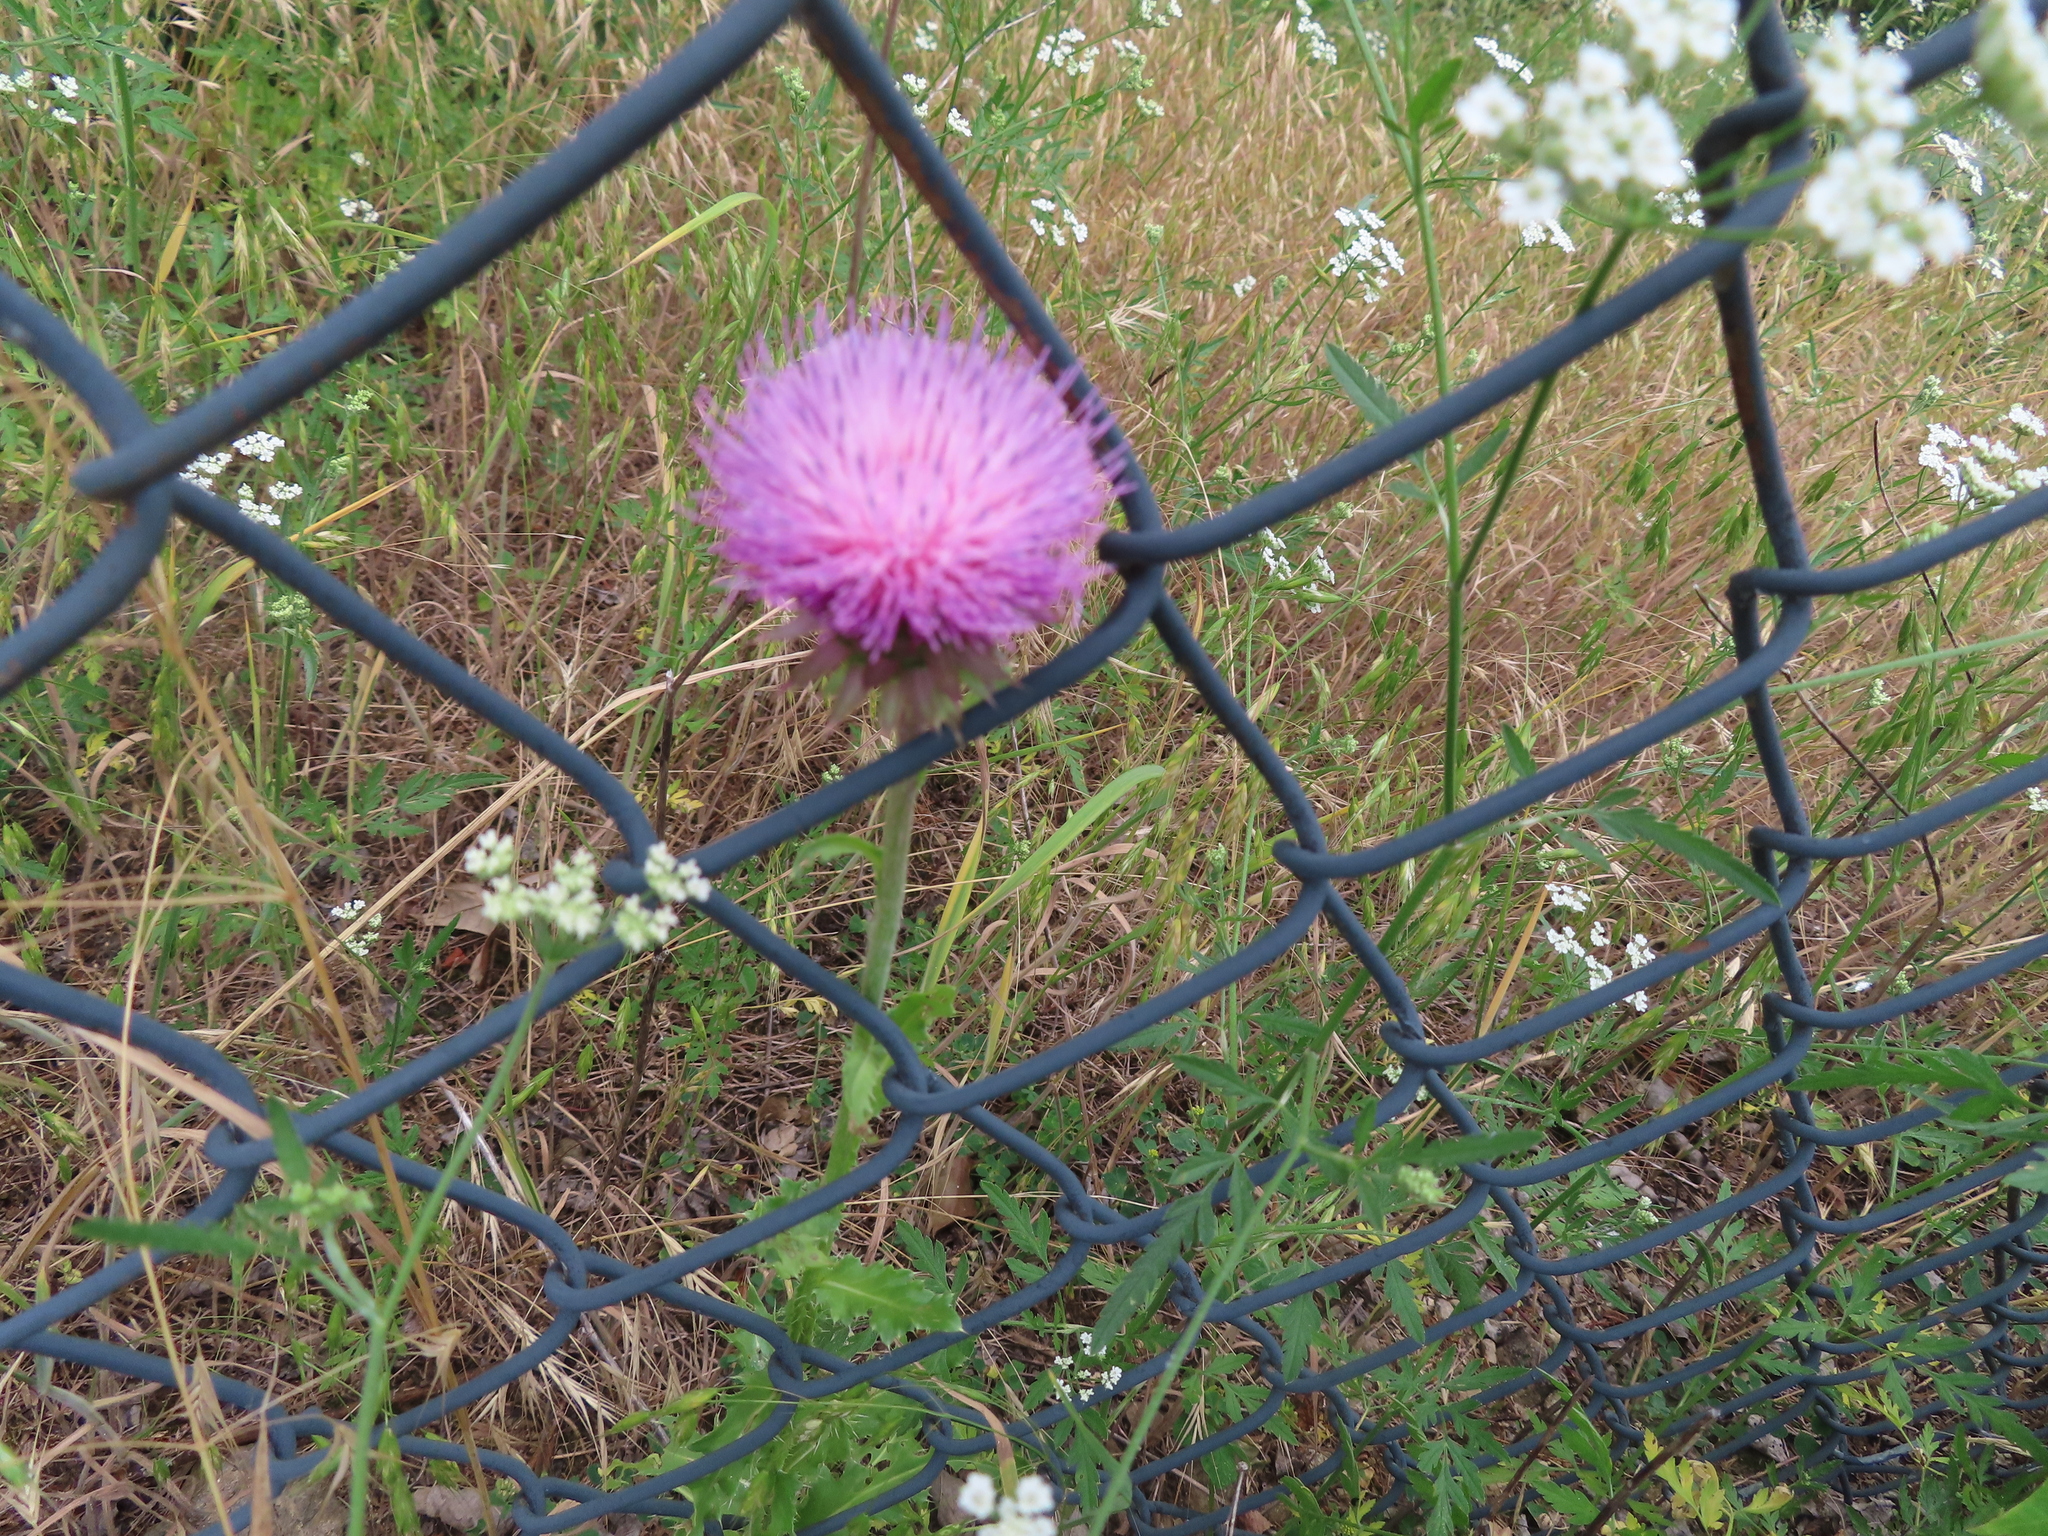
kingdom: Plantae
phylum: Tracheophyta
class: Magnoliopsida
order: Asterales
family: Asteraceae
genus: Carduus
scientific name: Carduus nutans
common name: Musk thistle
